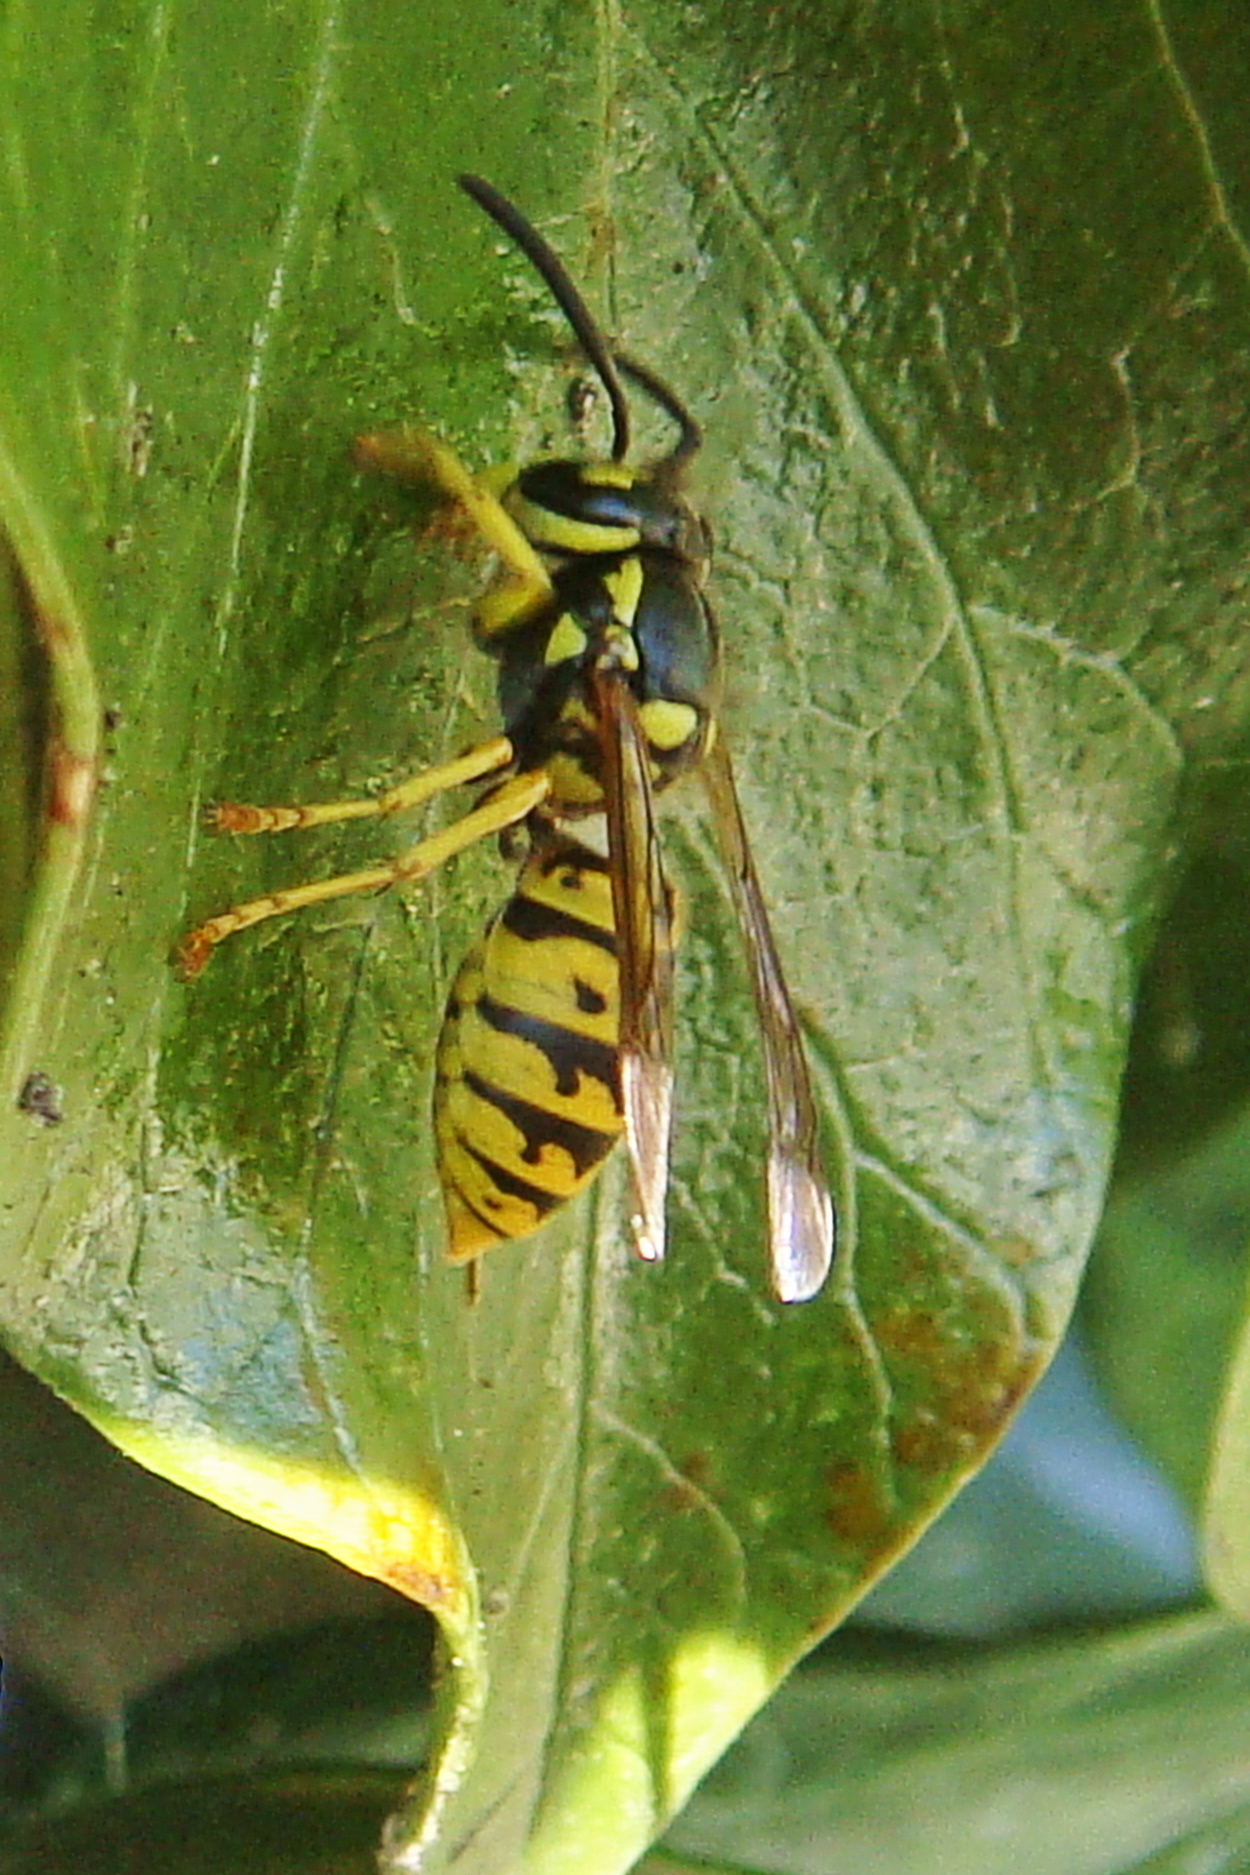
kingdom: Animalia
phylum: Arthropoda
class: Insecta
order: Hymenoptera
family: Vespidae
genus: Vespula
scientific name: Vespula germanica
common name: German wasp
